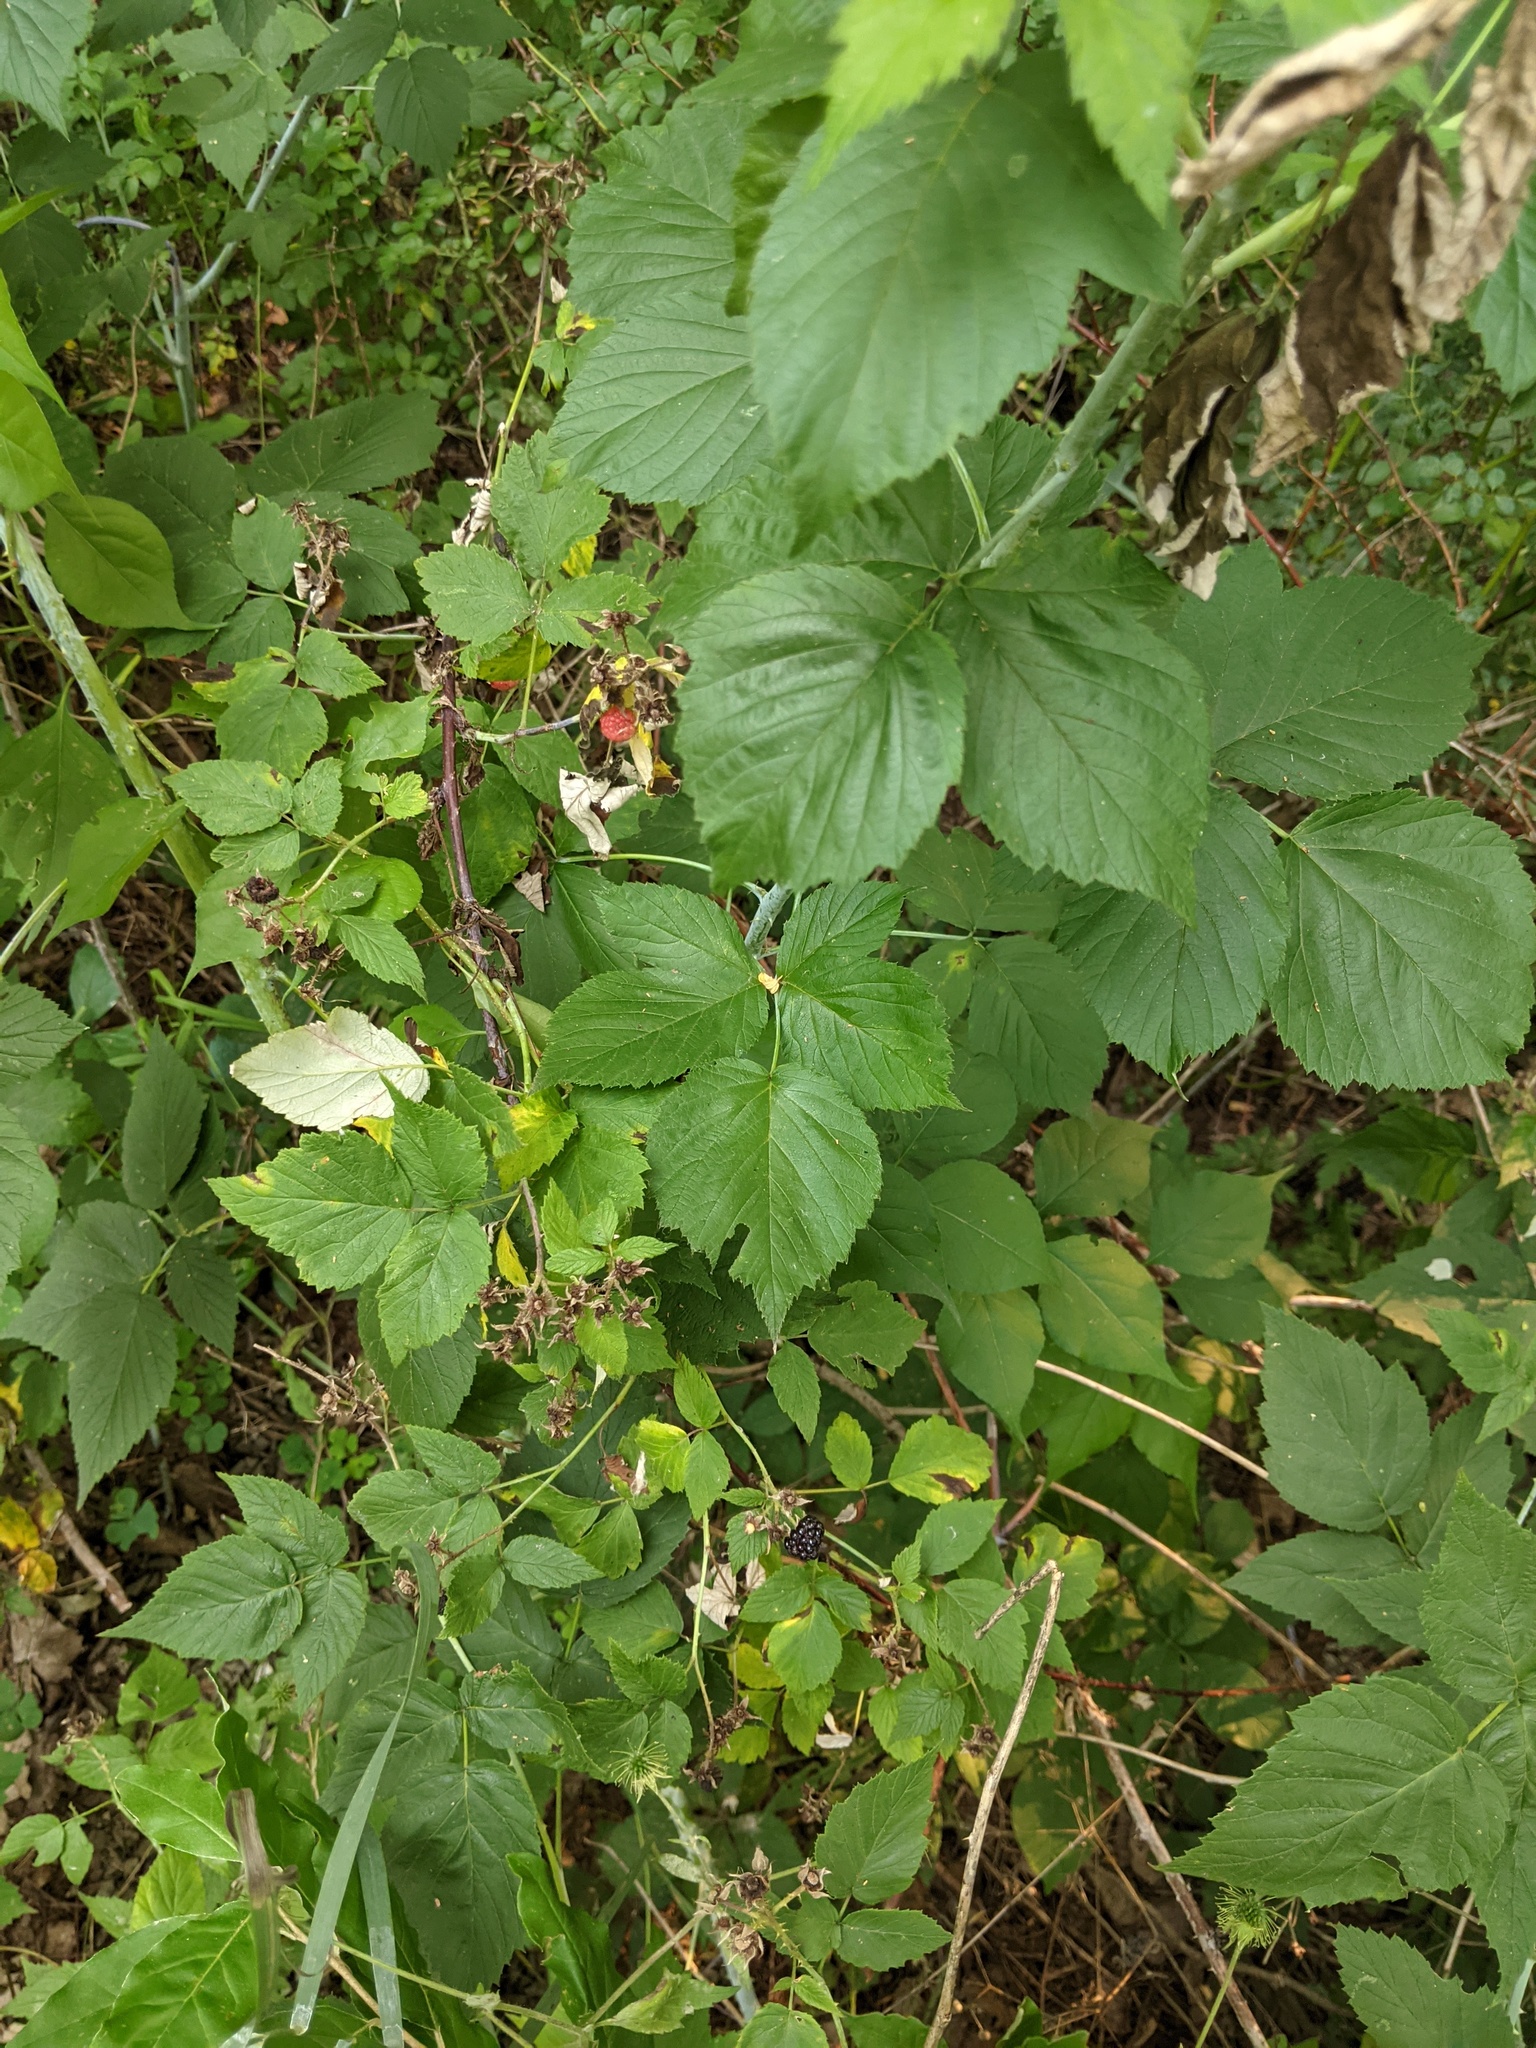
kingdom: Plantae
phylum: Tracheophyta
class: Magnoliopsida
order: Rosales
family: Rosaceae
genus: Rubus
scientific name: Rubus occidentalis
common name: Black raspberry
